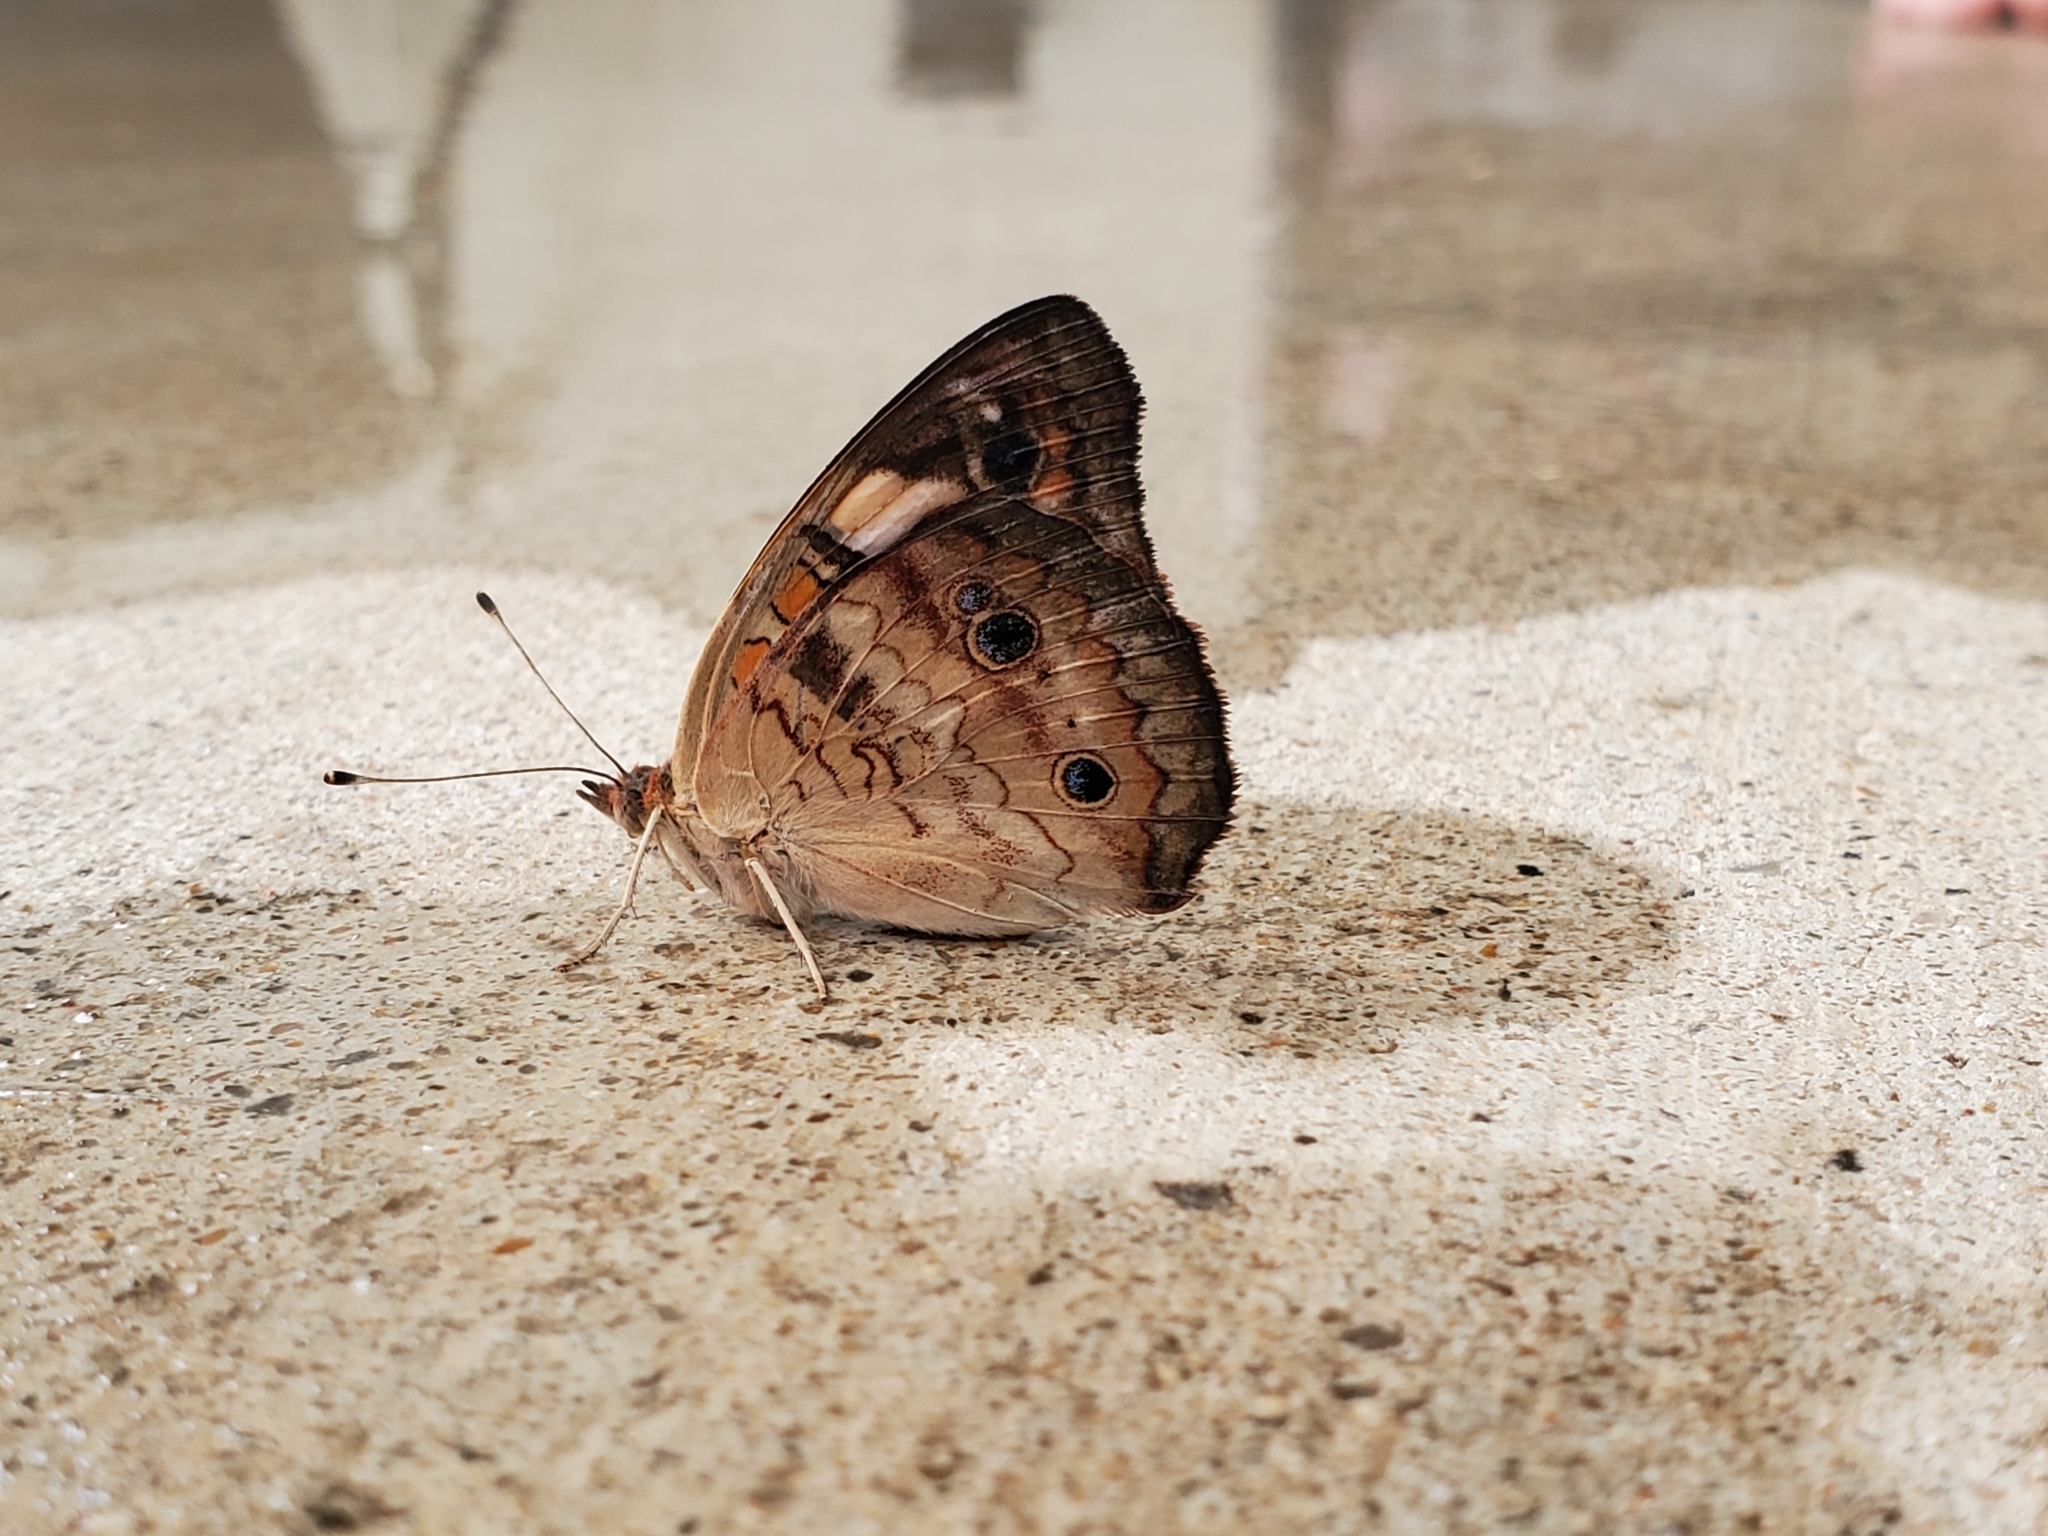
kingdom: Animalia
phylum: Arthropoda
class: Insecta
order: Lepidoptera
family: Nymphalidae
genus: Junonia
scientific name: Junonia coenia
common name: Common buckeye
